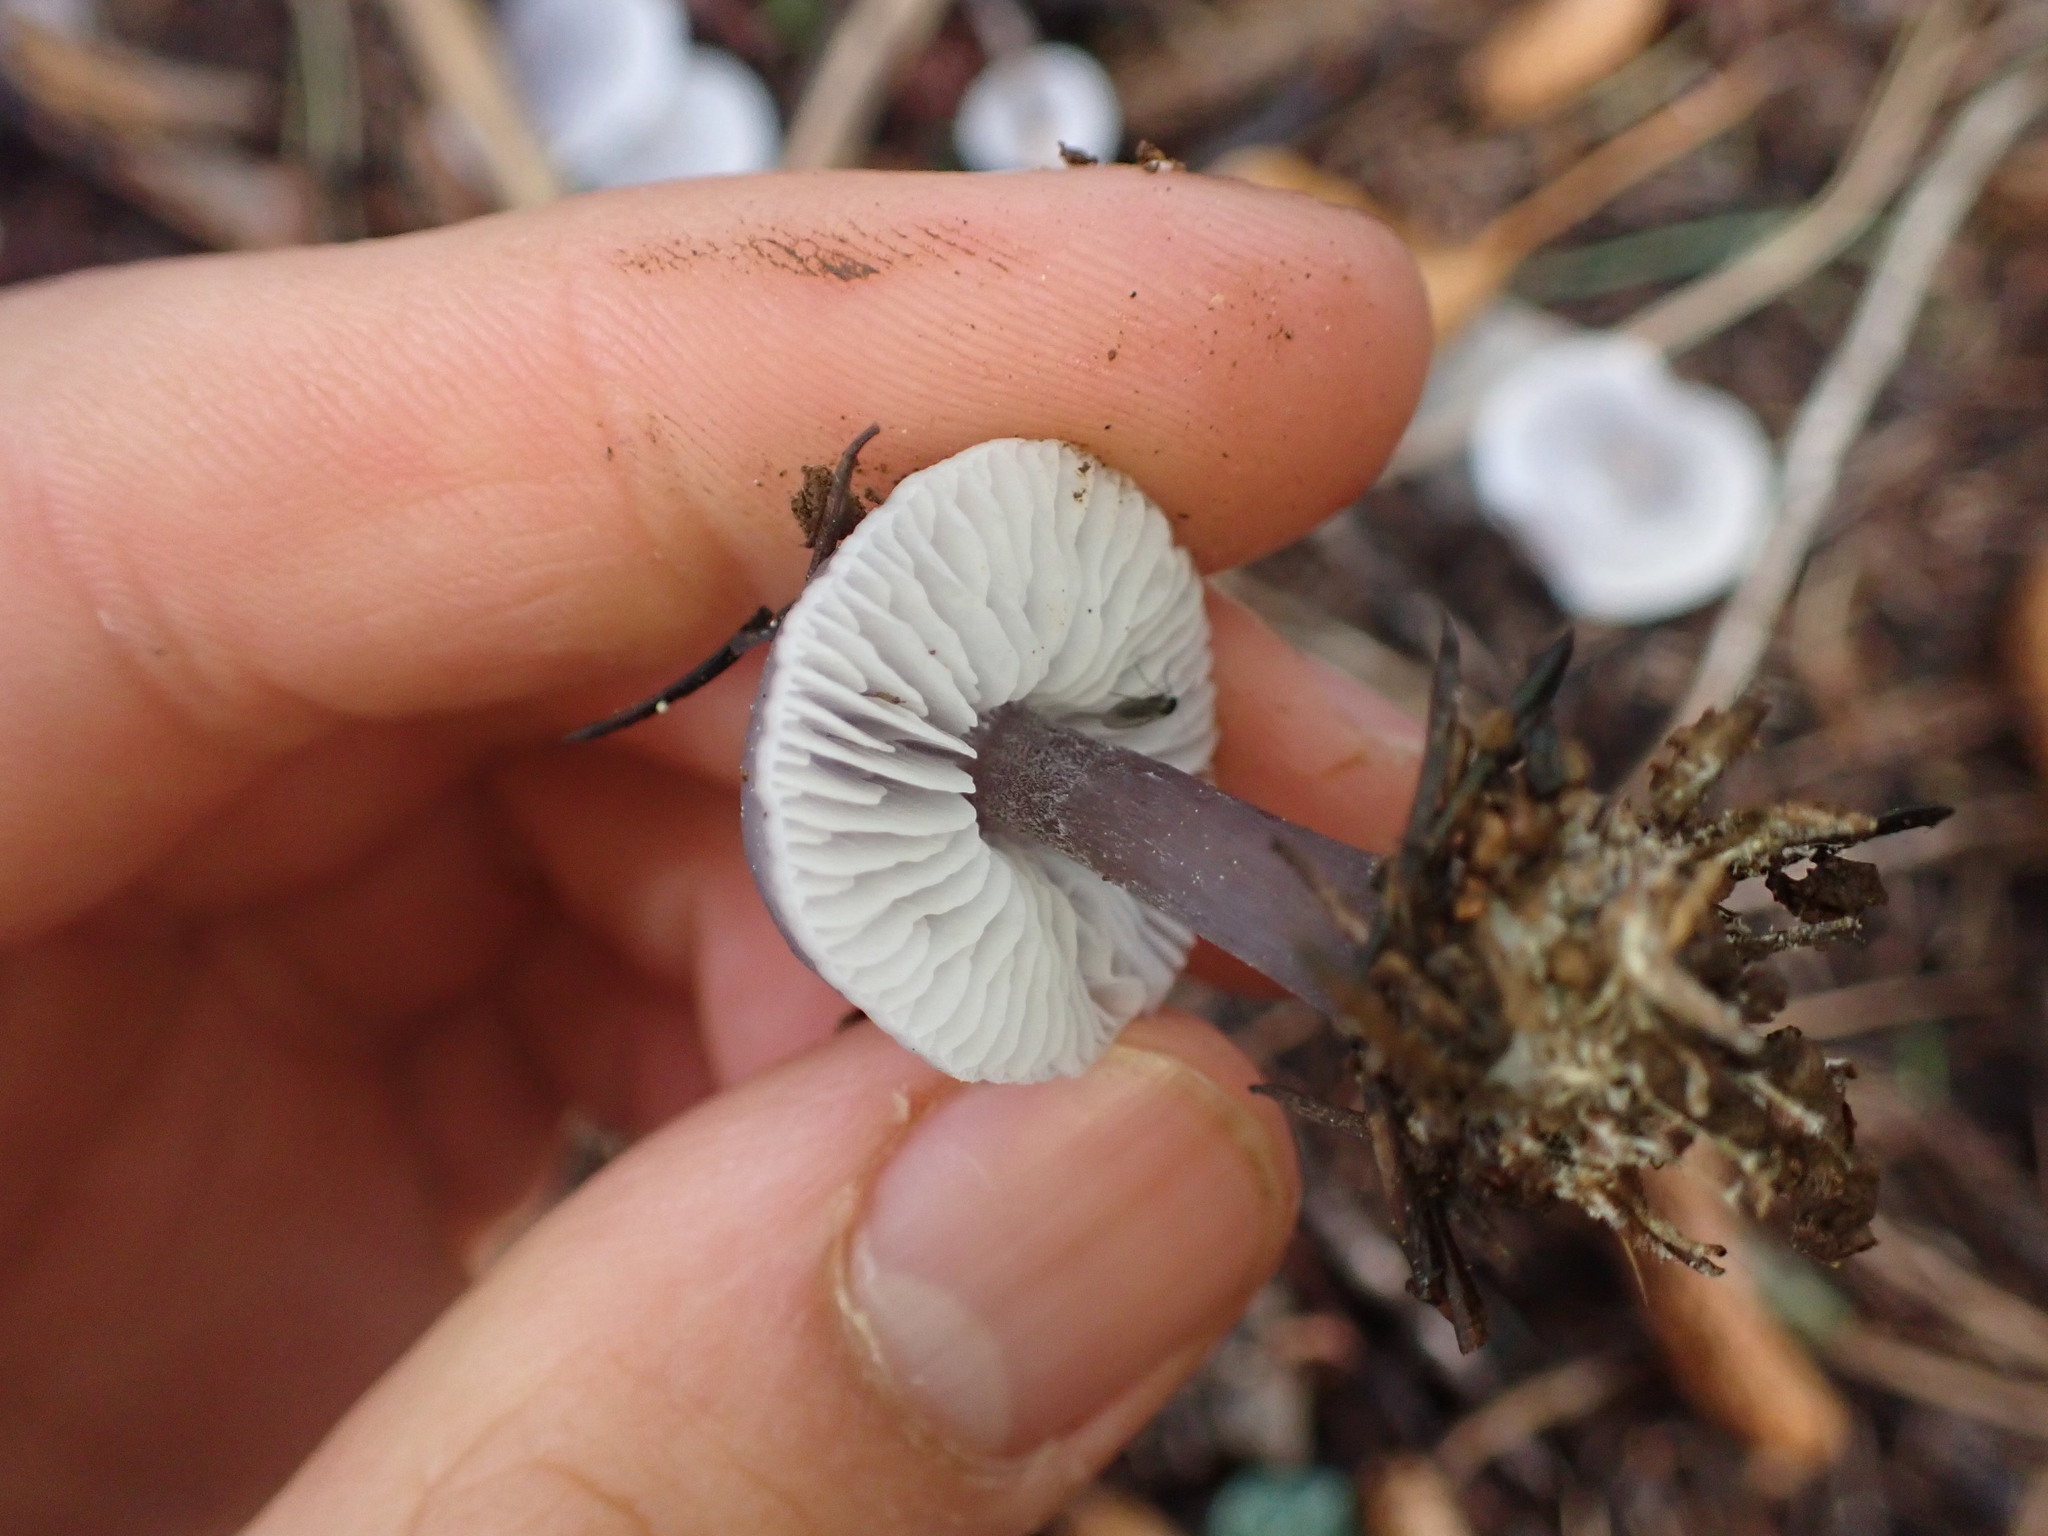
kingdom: Fungi
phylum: Basidiomycota
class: Agaricomycetes
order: Agaricales
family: Mycenaceae
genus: Mycena
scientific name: Mycena pura
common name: Lilac bonnet
